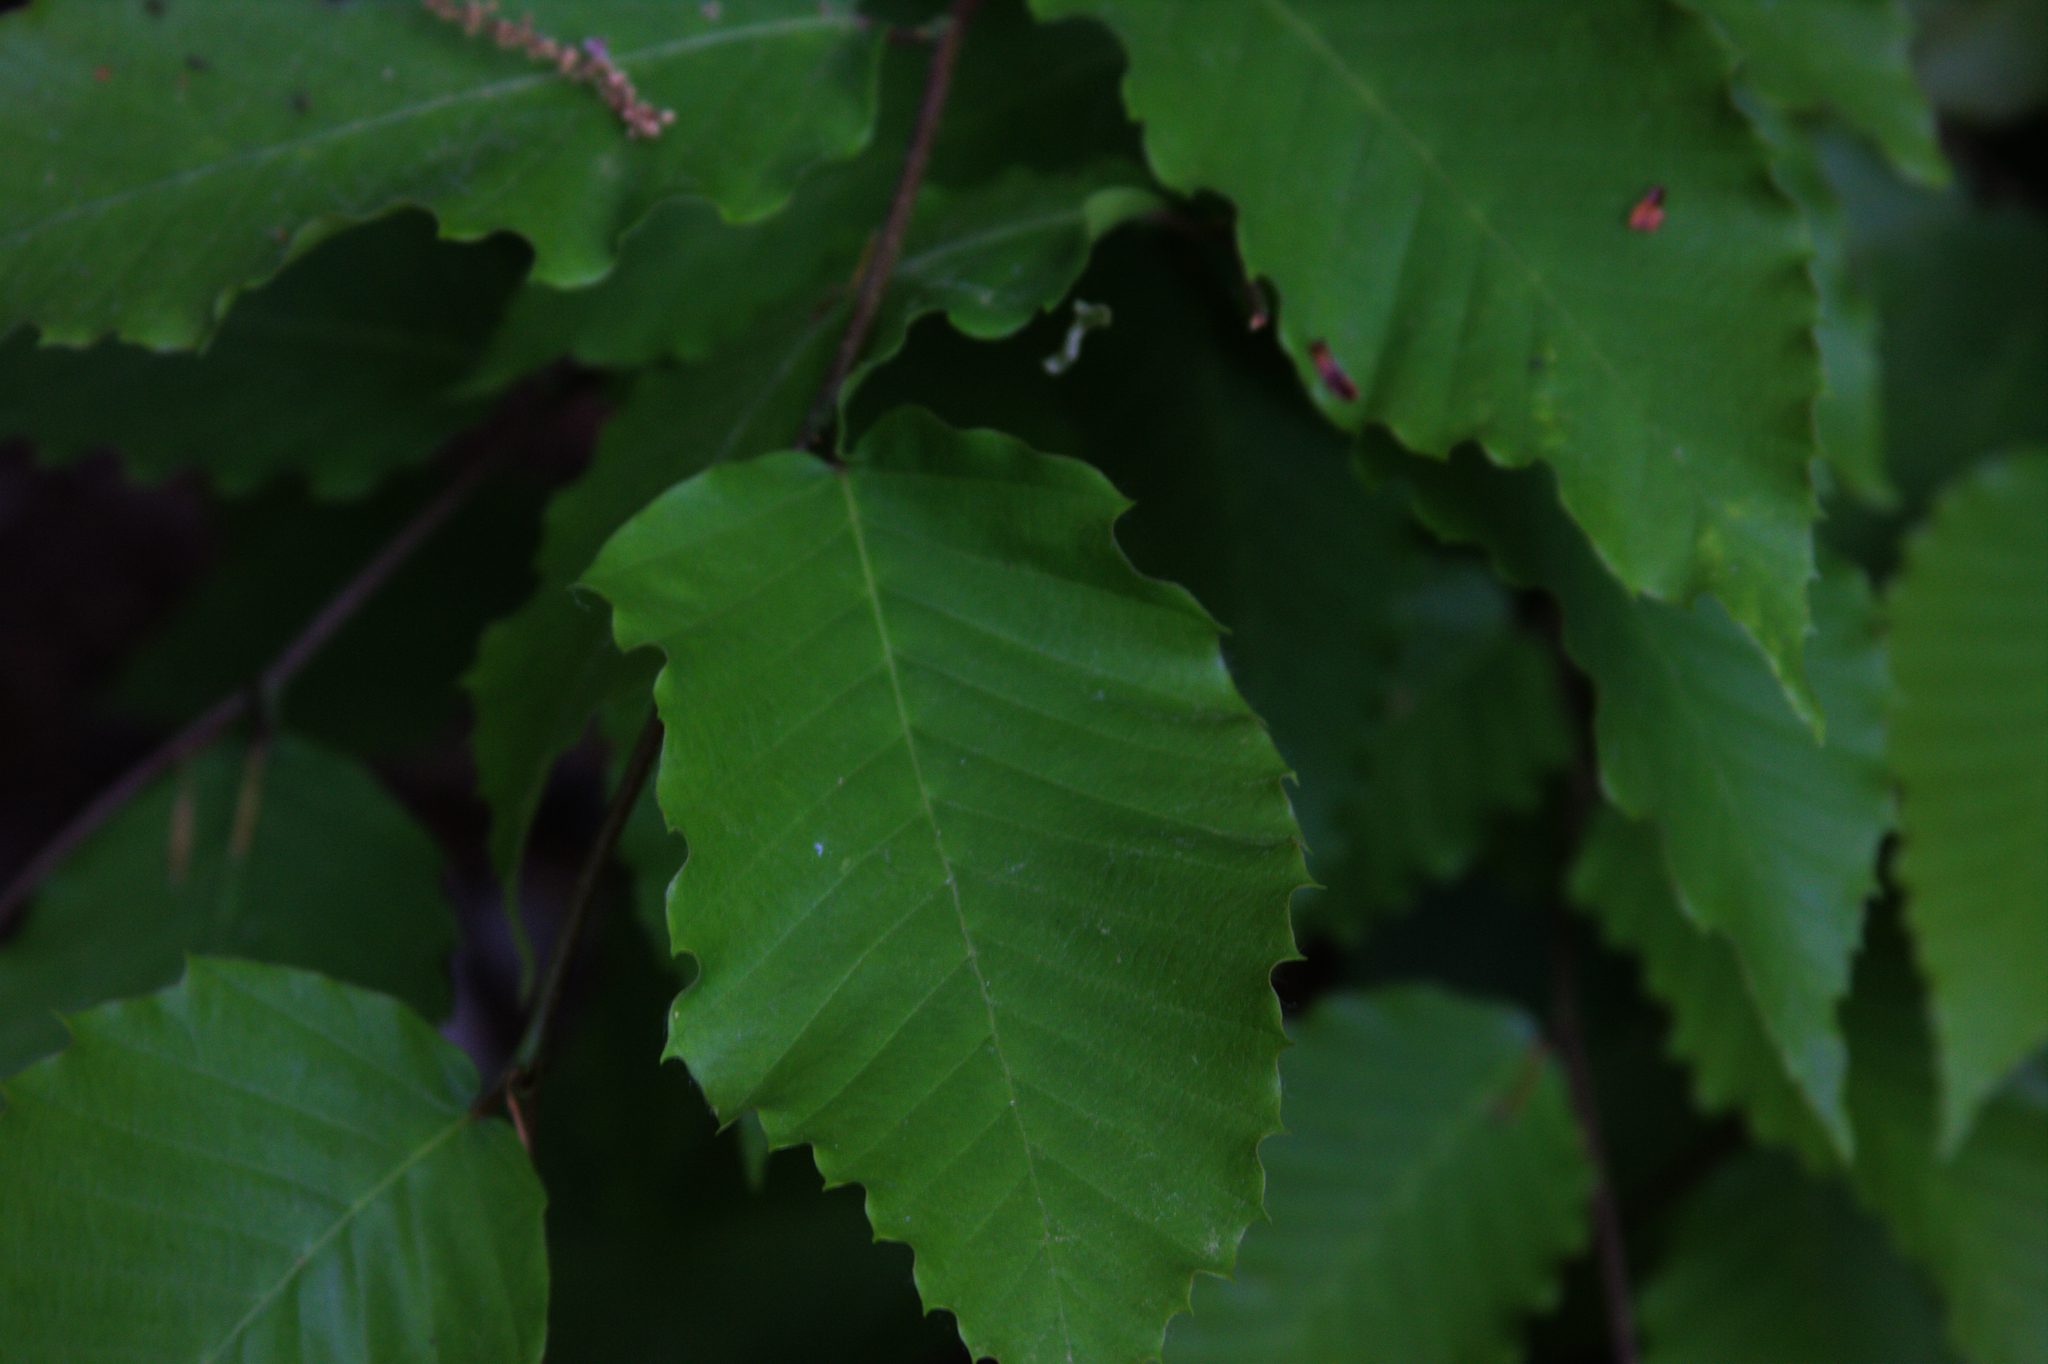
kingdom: Plantae
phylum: Tracheophyta
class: Magnoliopsida
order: Fagales
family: Fagaceae
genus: Fagus
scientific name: Fagus grandifolia
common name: American beech
